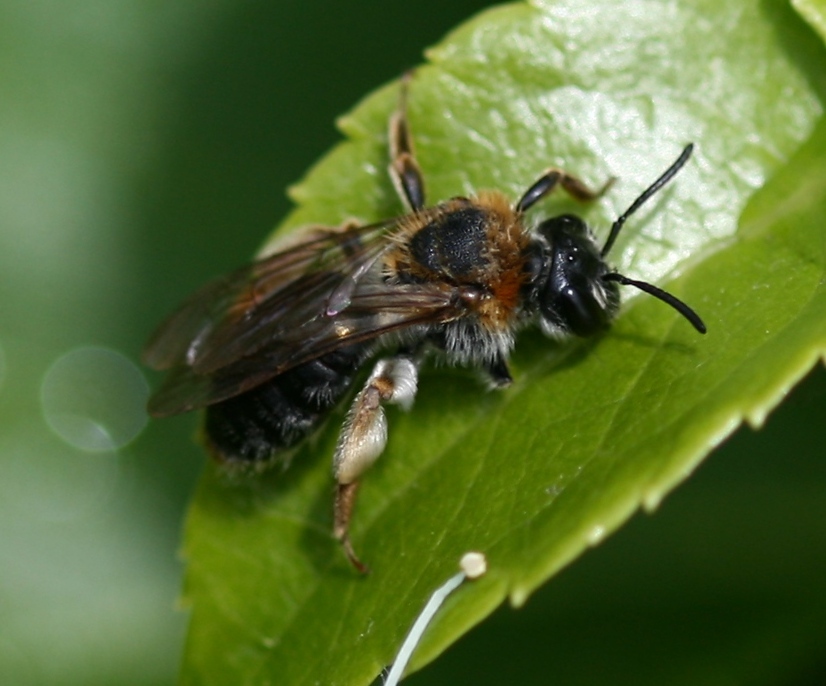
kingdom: Animalia
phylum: Arthropoda
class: Insecta
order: Hymenoptera
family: Andrenidae
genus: Andrena
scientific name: Andrena haemorrhoa
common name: Early mining bee
